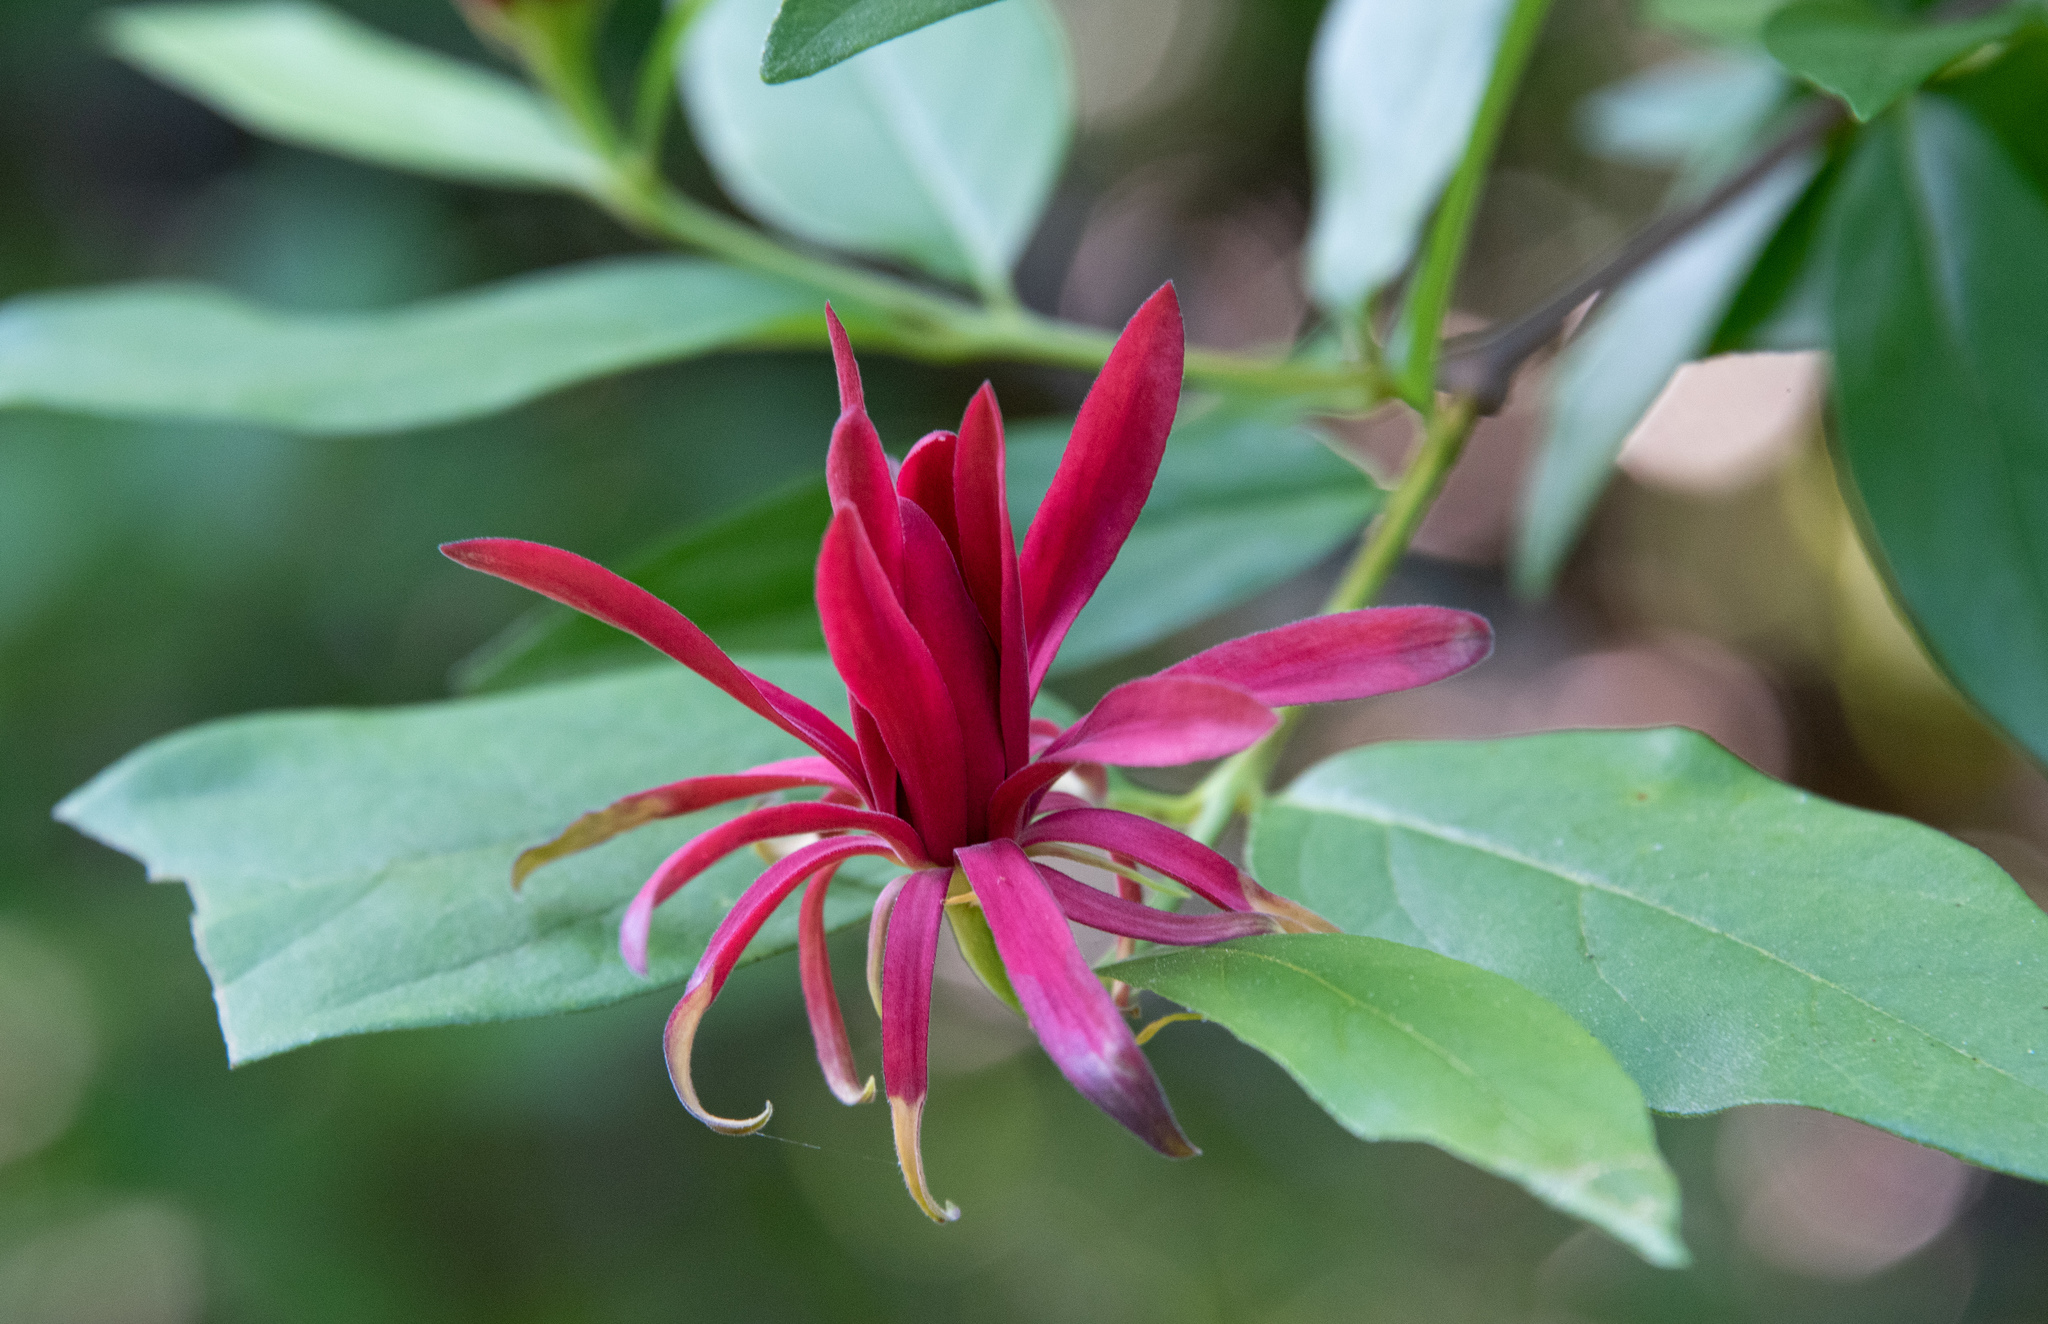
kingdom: Plantae
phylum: Tracheophyta
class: Magnoliopsida
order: Laurales
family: Calycanthaceae
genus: Calycanthus
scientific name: Calycanthus occidentalis
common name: California spicebush
